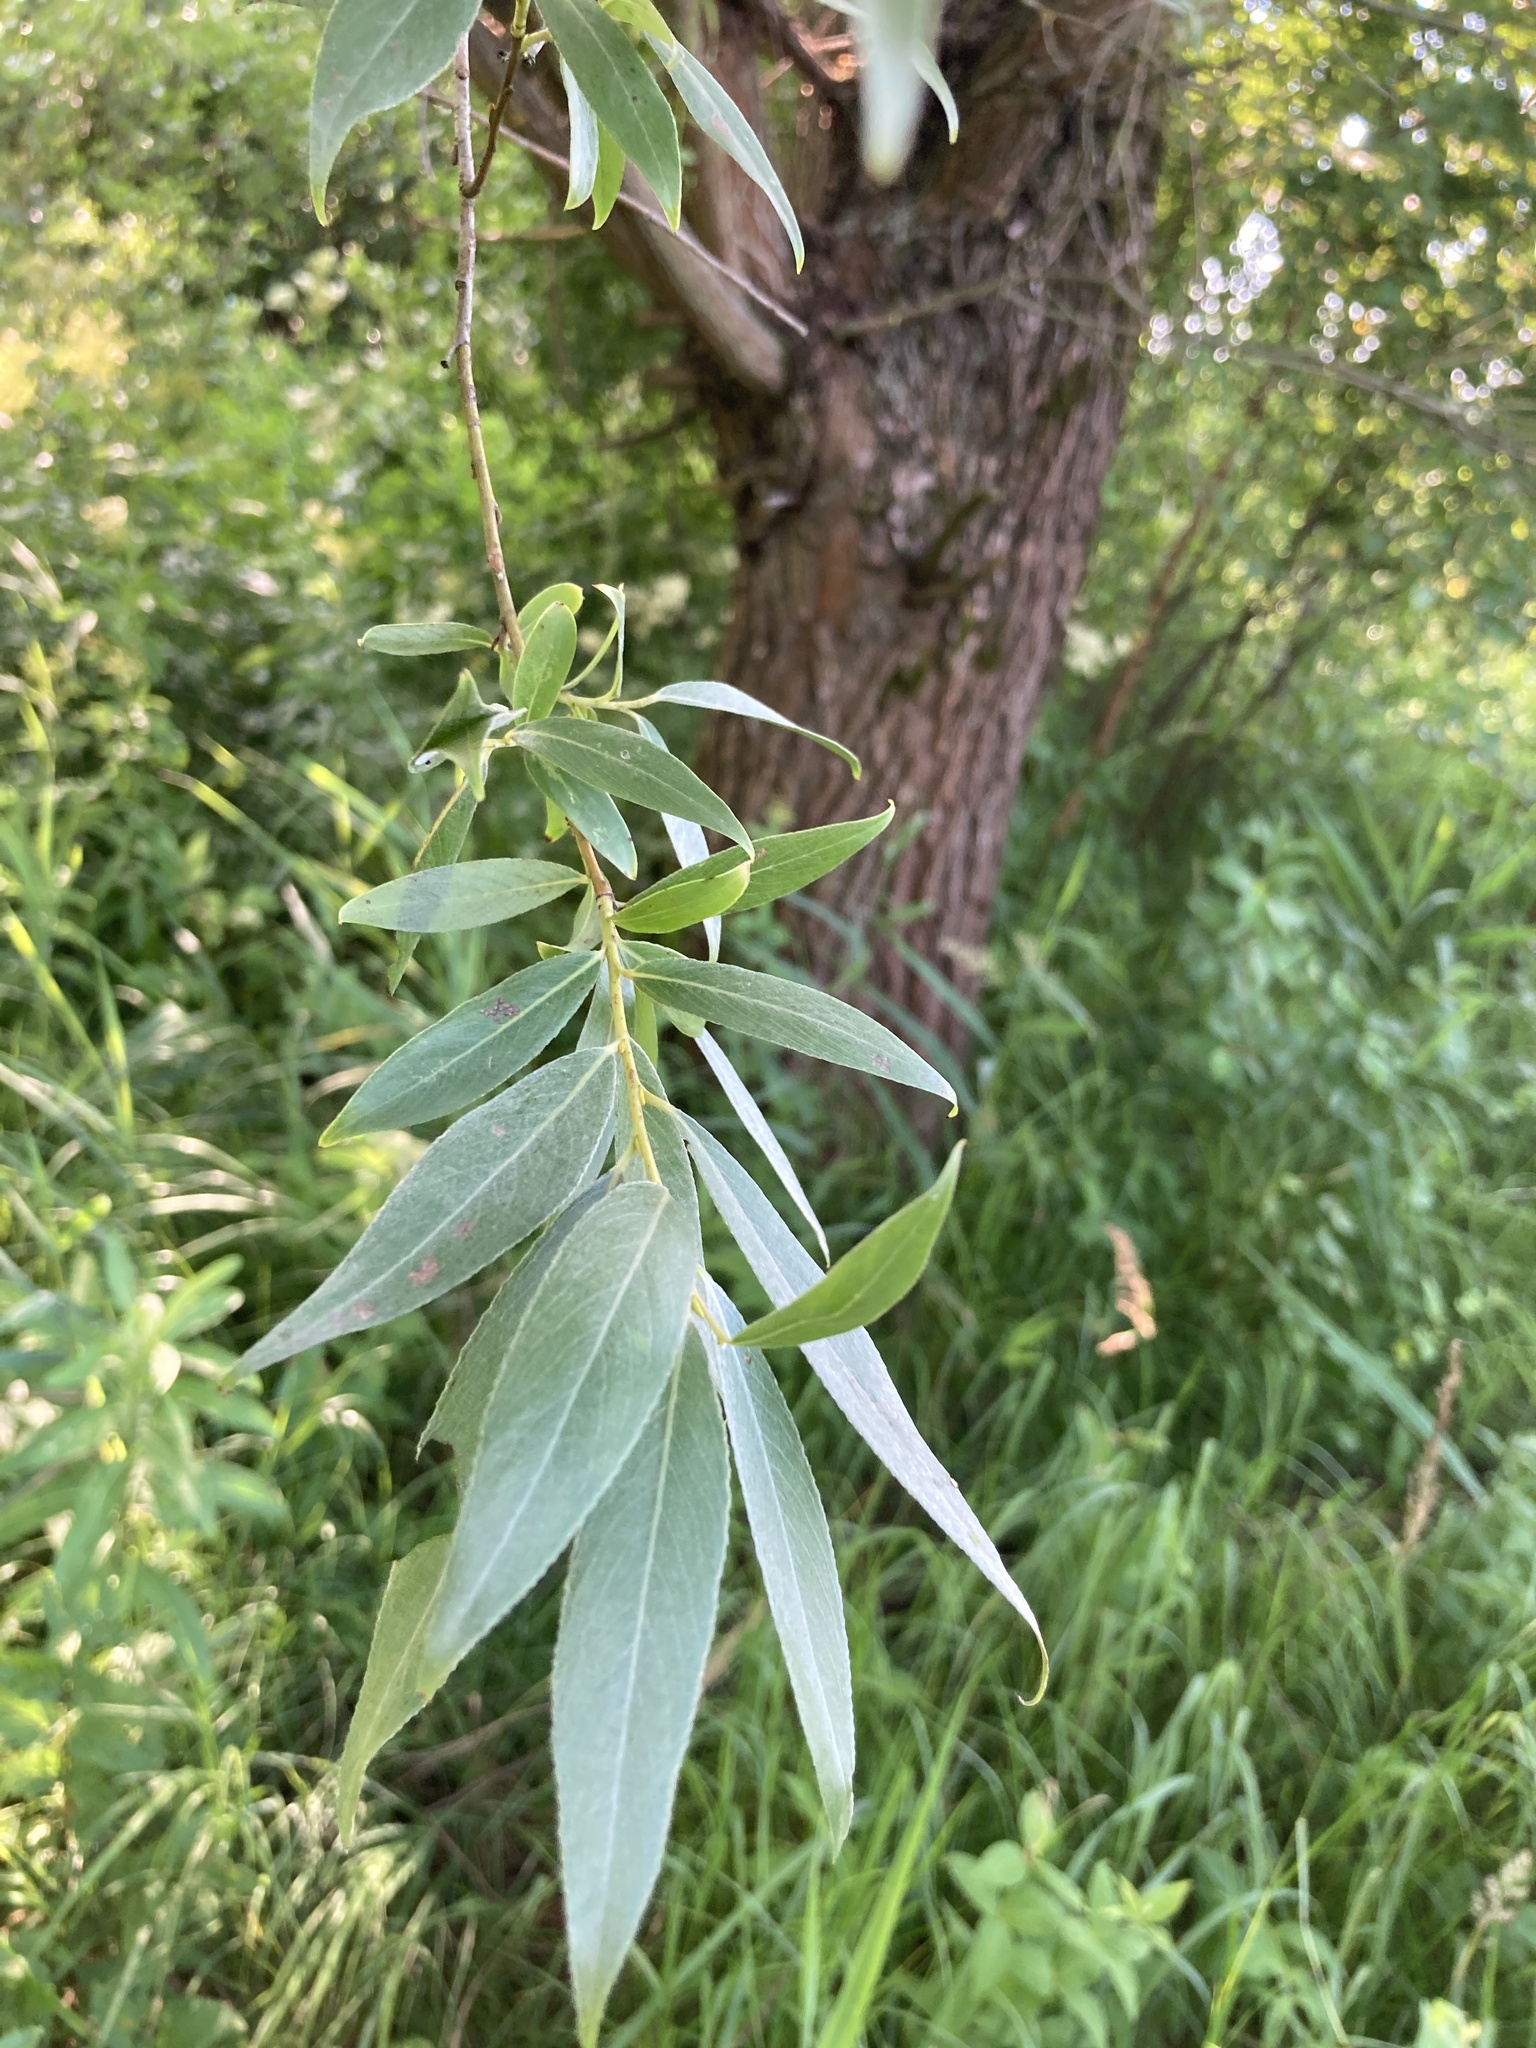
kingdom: Plantae
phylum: Tracheophyta
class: Magnoliopsida
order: Malpighiales
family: Salicaceae
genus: Salix
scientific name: Salix alba
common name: White willow
